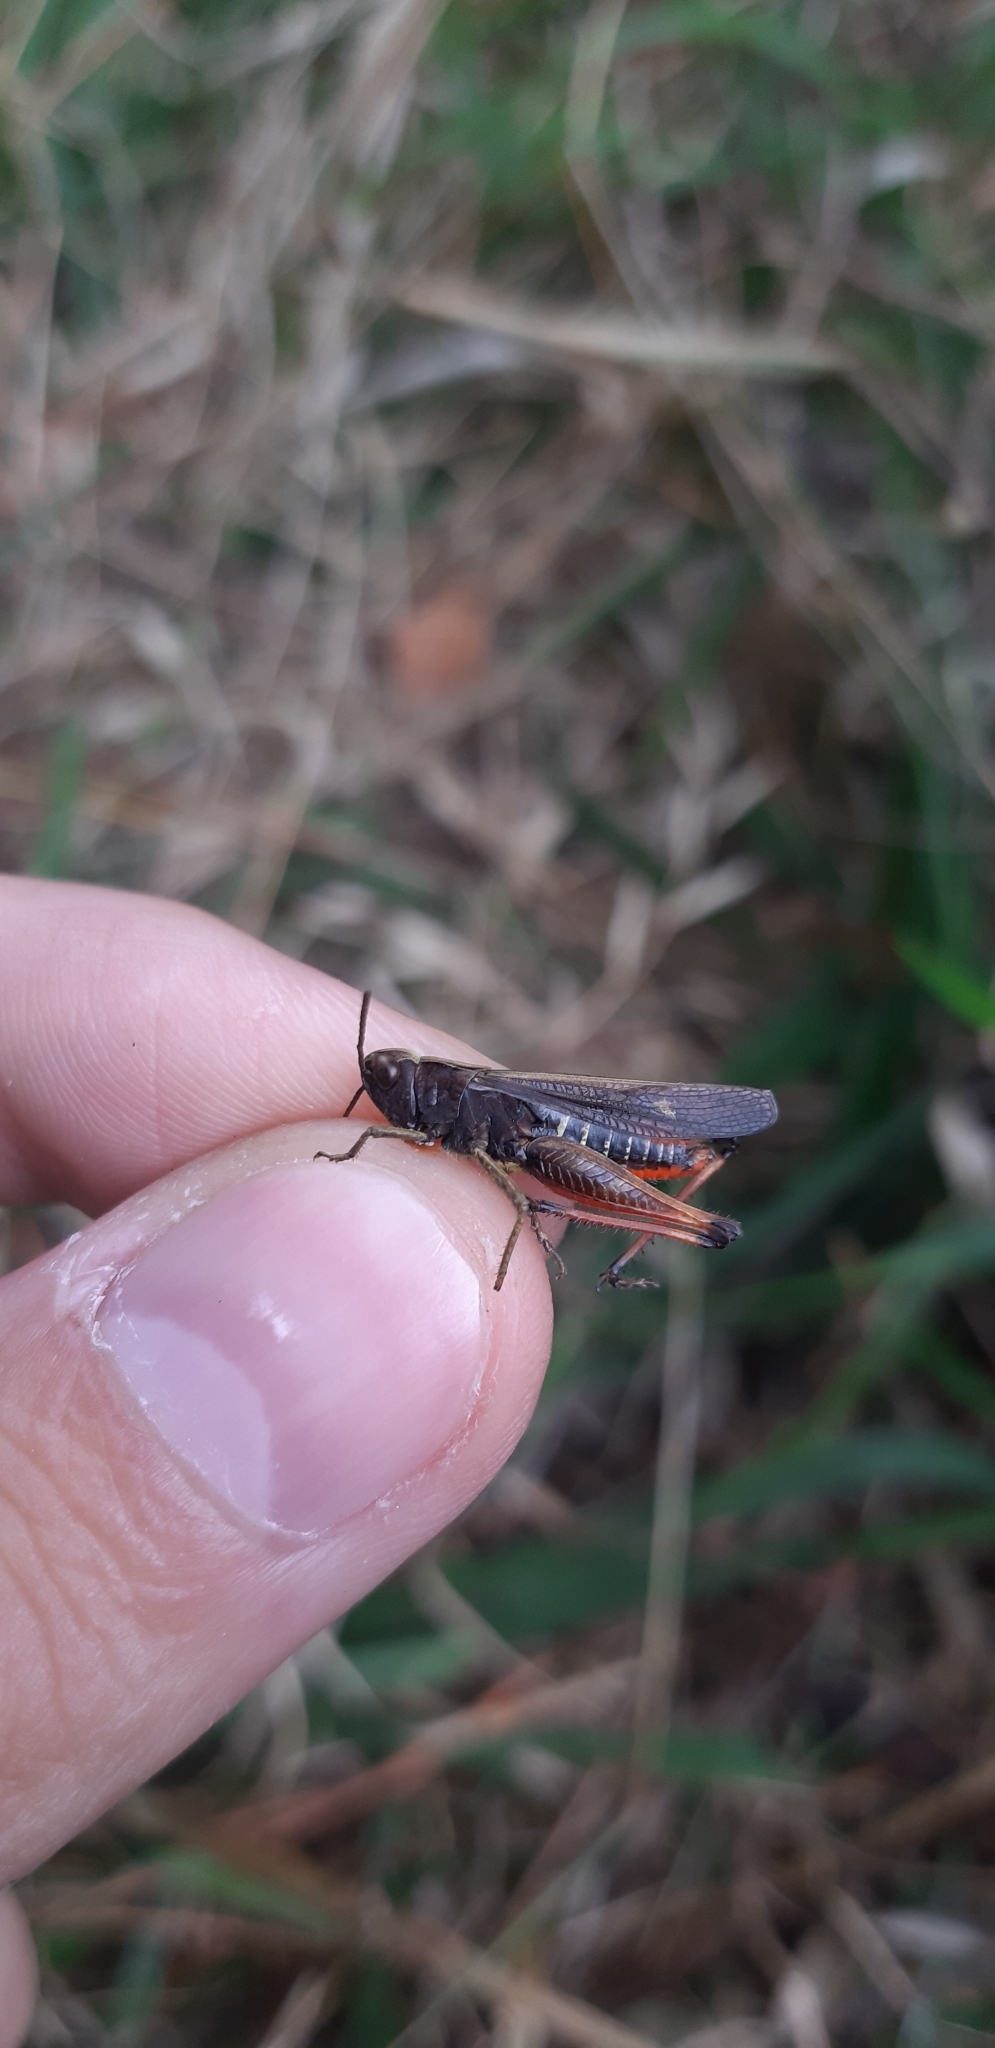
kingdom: Animalia
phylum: Arthropoda
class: Insecta
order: Orthoptera
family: Acrididae
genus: Omocestus
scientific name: Omocestus rufipes
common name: Woodland grasshopper
